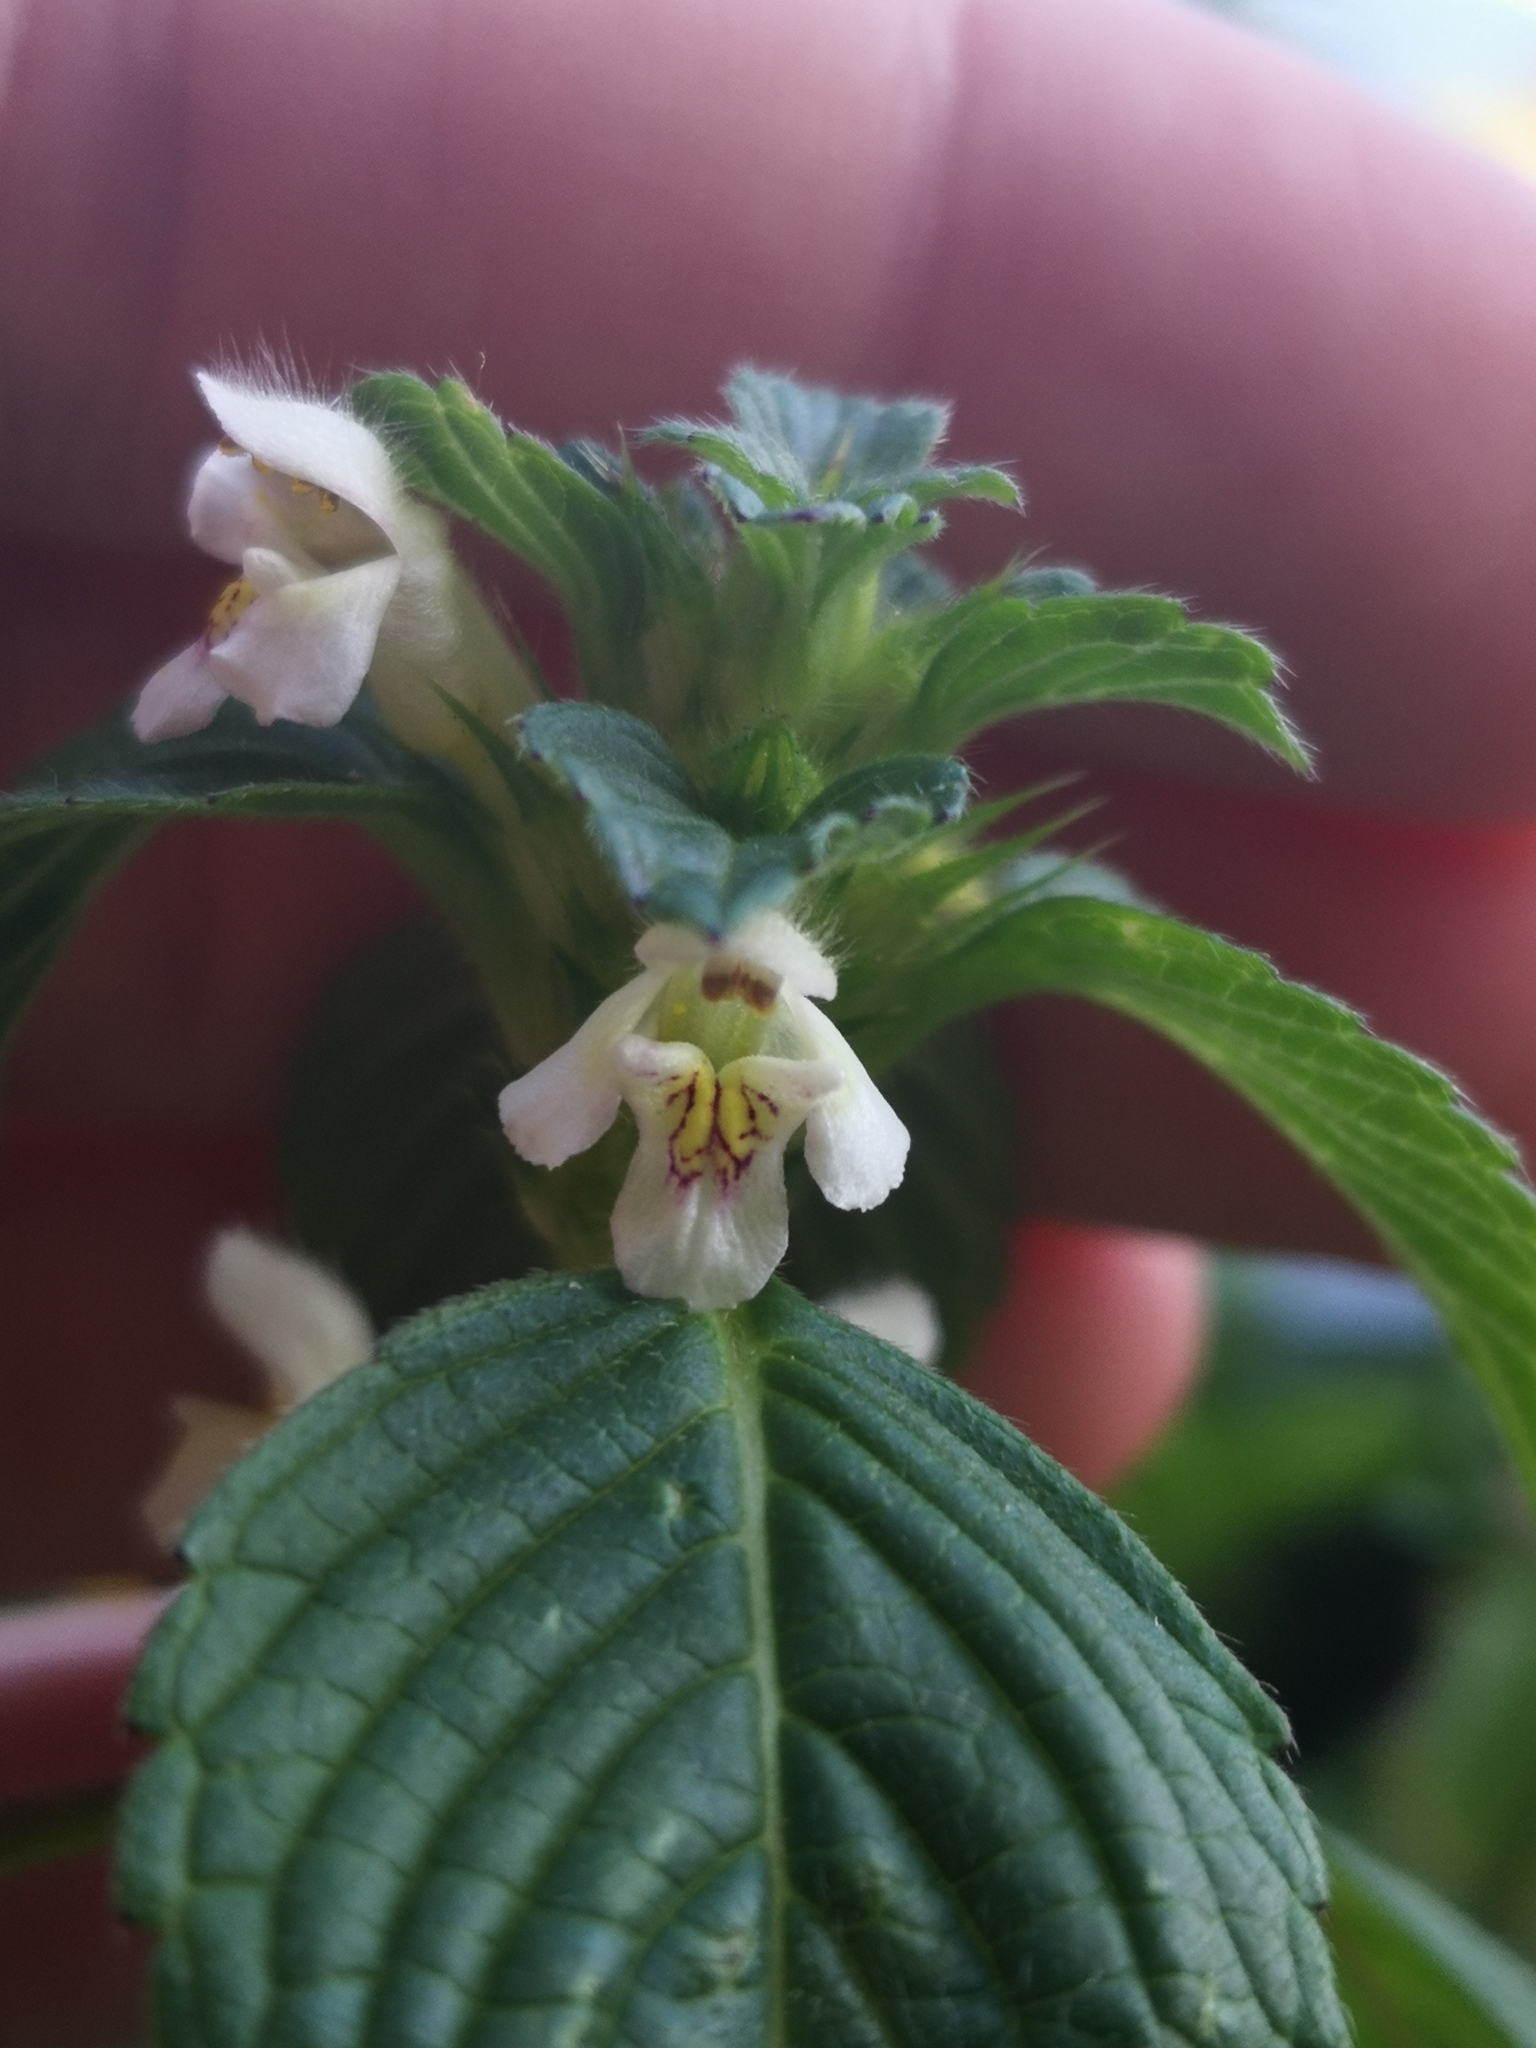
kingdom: Plantae
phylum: Tracheophyta
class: Magnoliopsida
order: Lamiales
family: Lamiaceae
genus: Galeopsis
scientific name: Galeopsis tetrahit
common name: Common hemp-nettle
